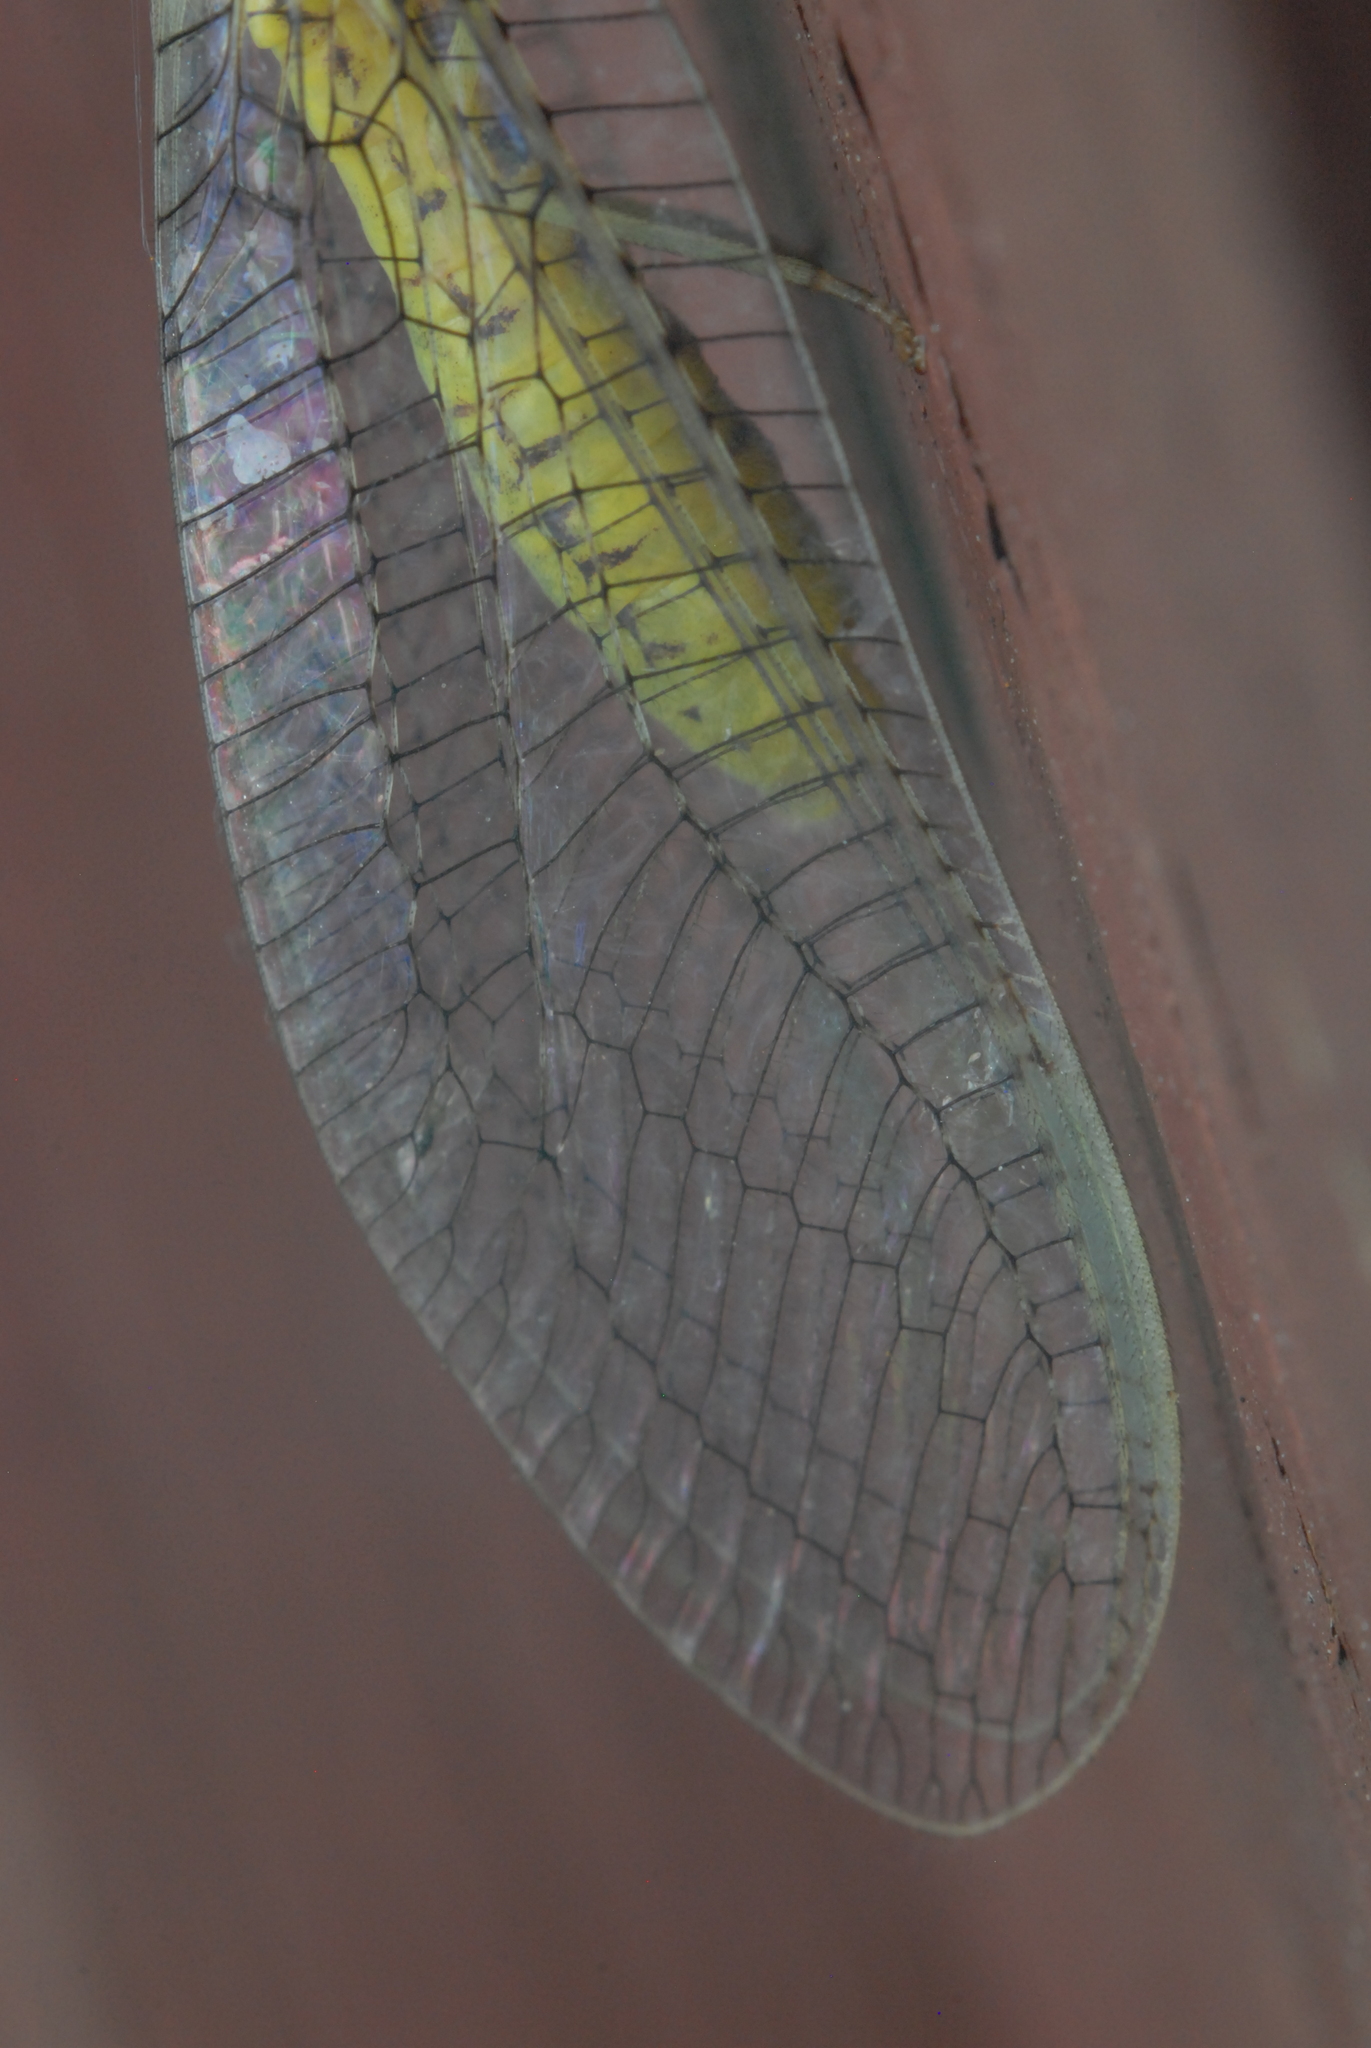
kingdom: Animalia
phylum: Arthropoda
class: Insecta
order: Neuroptera
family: Chrysopidae
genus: Italochrysa
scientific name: Italochrysa insignis
